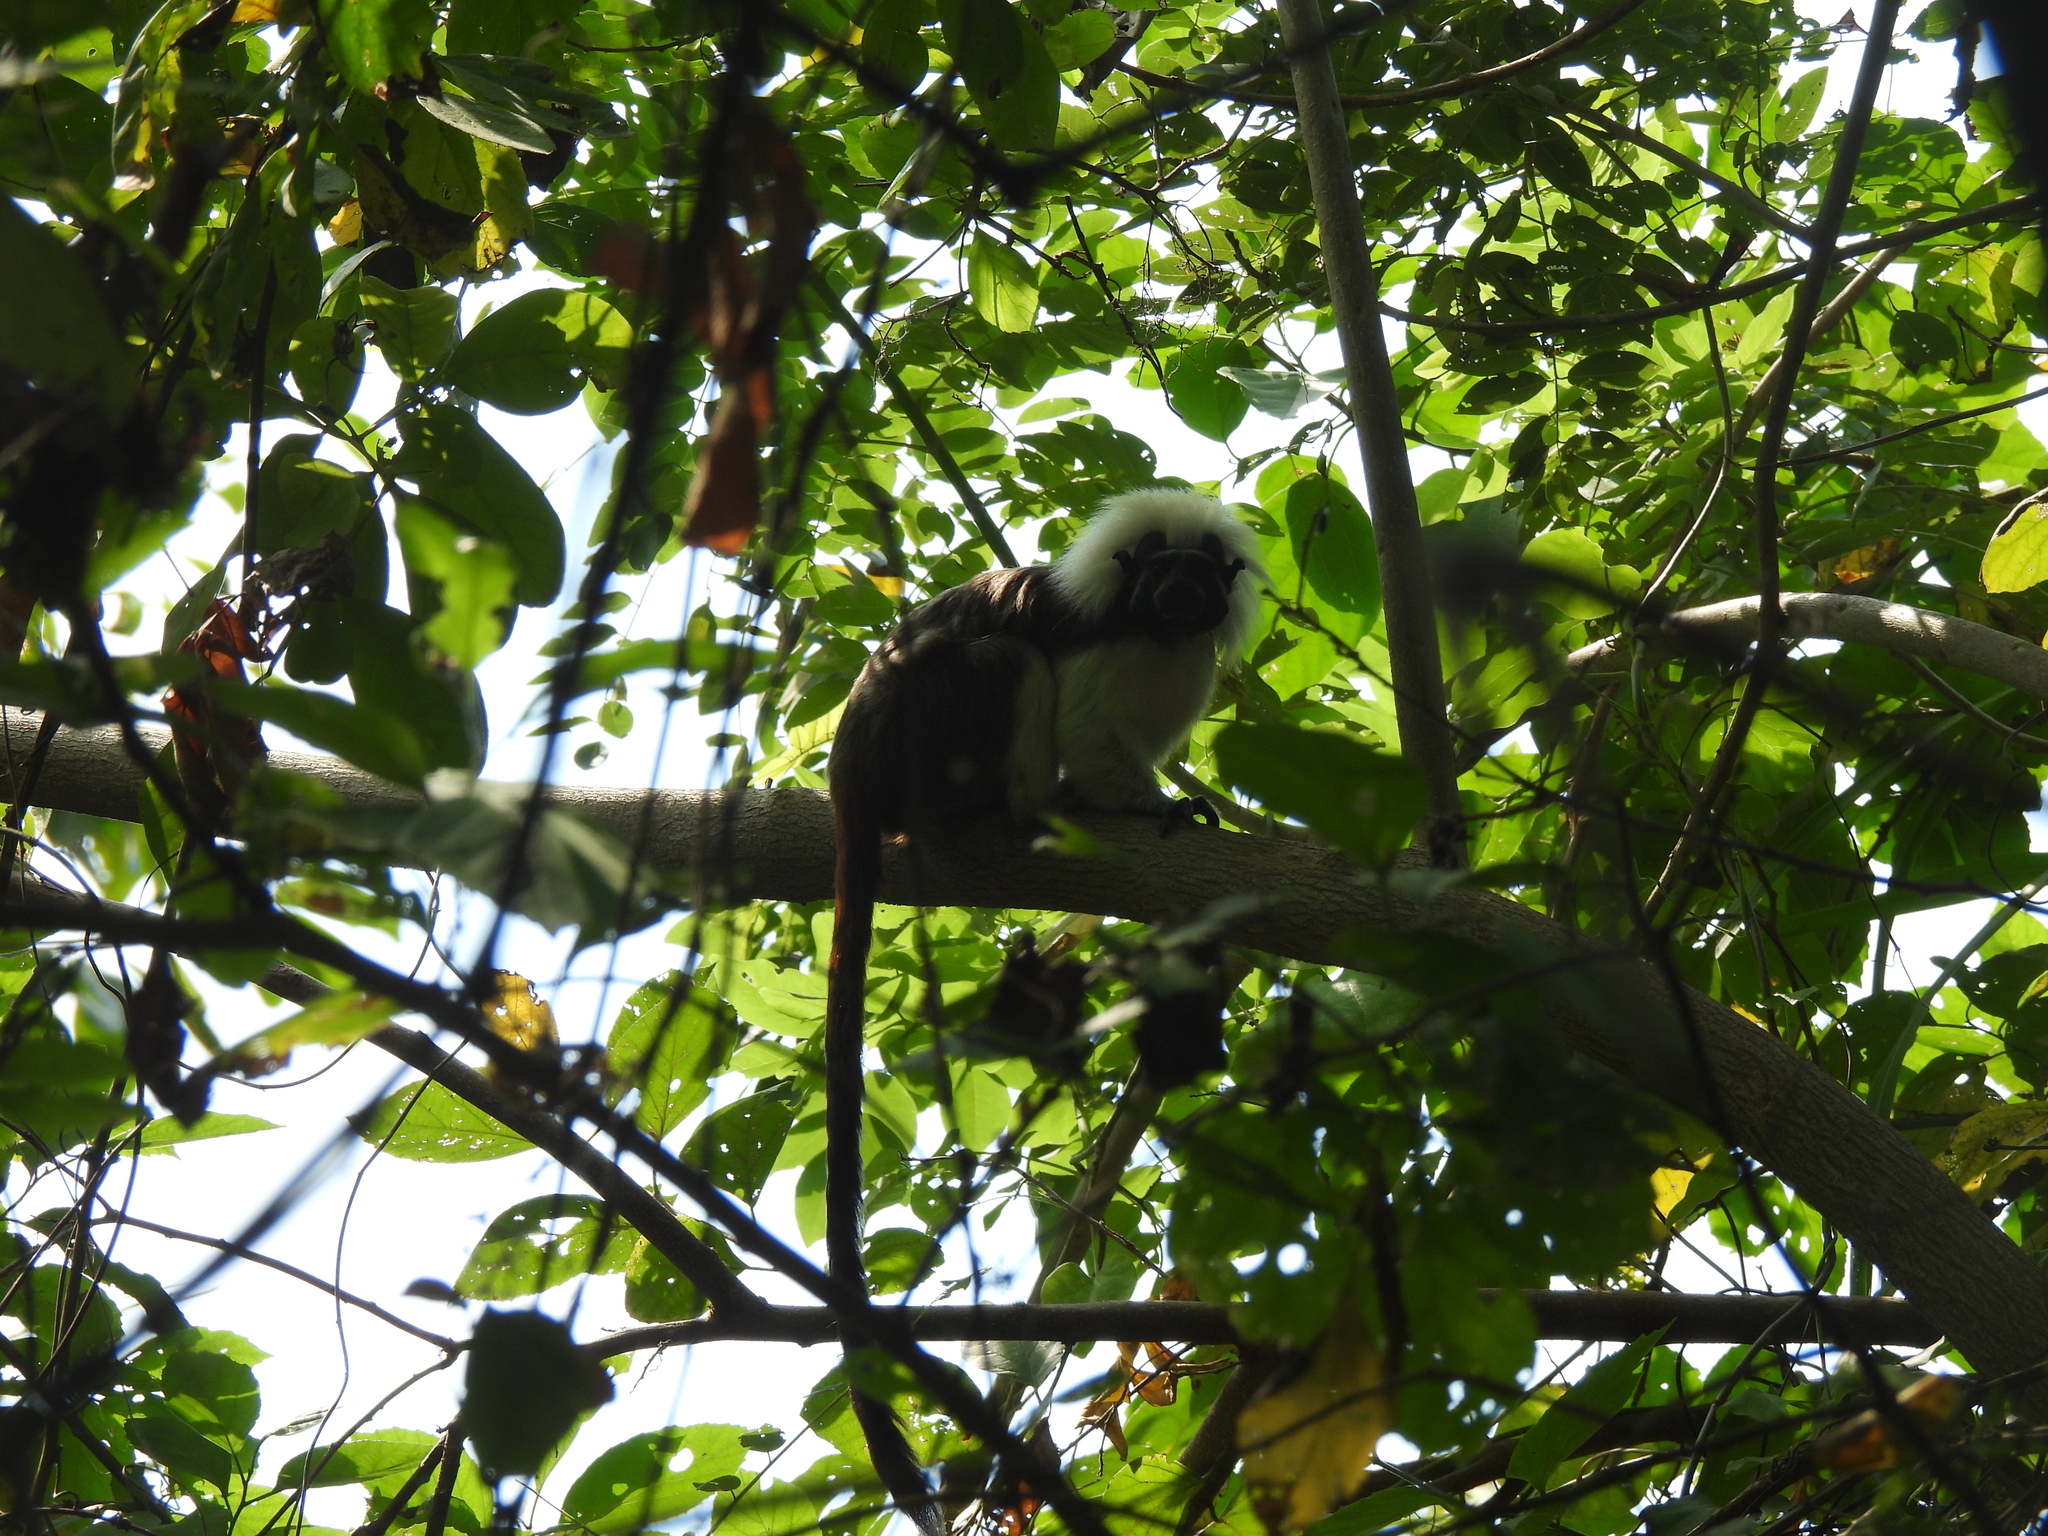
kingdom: Animalia
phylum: Chordata
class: Mammalia
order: Primates
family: Callitrichidae
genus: Saguinus
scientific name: Saguinus oedipus
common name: Cottontop tamarin
